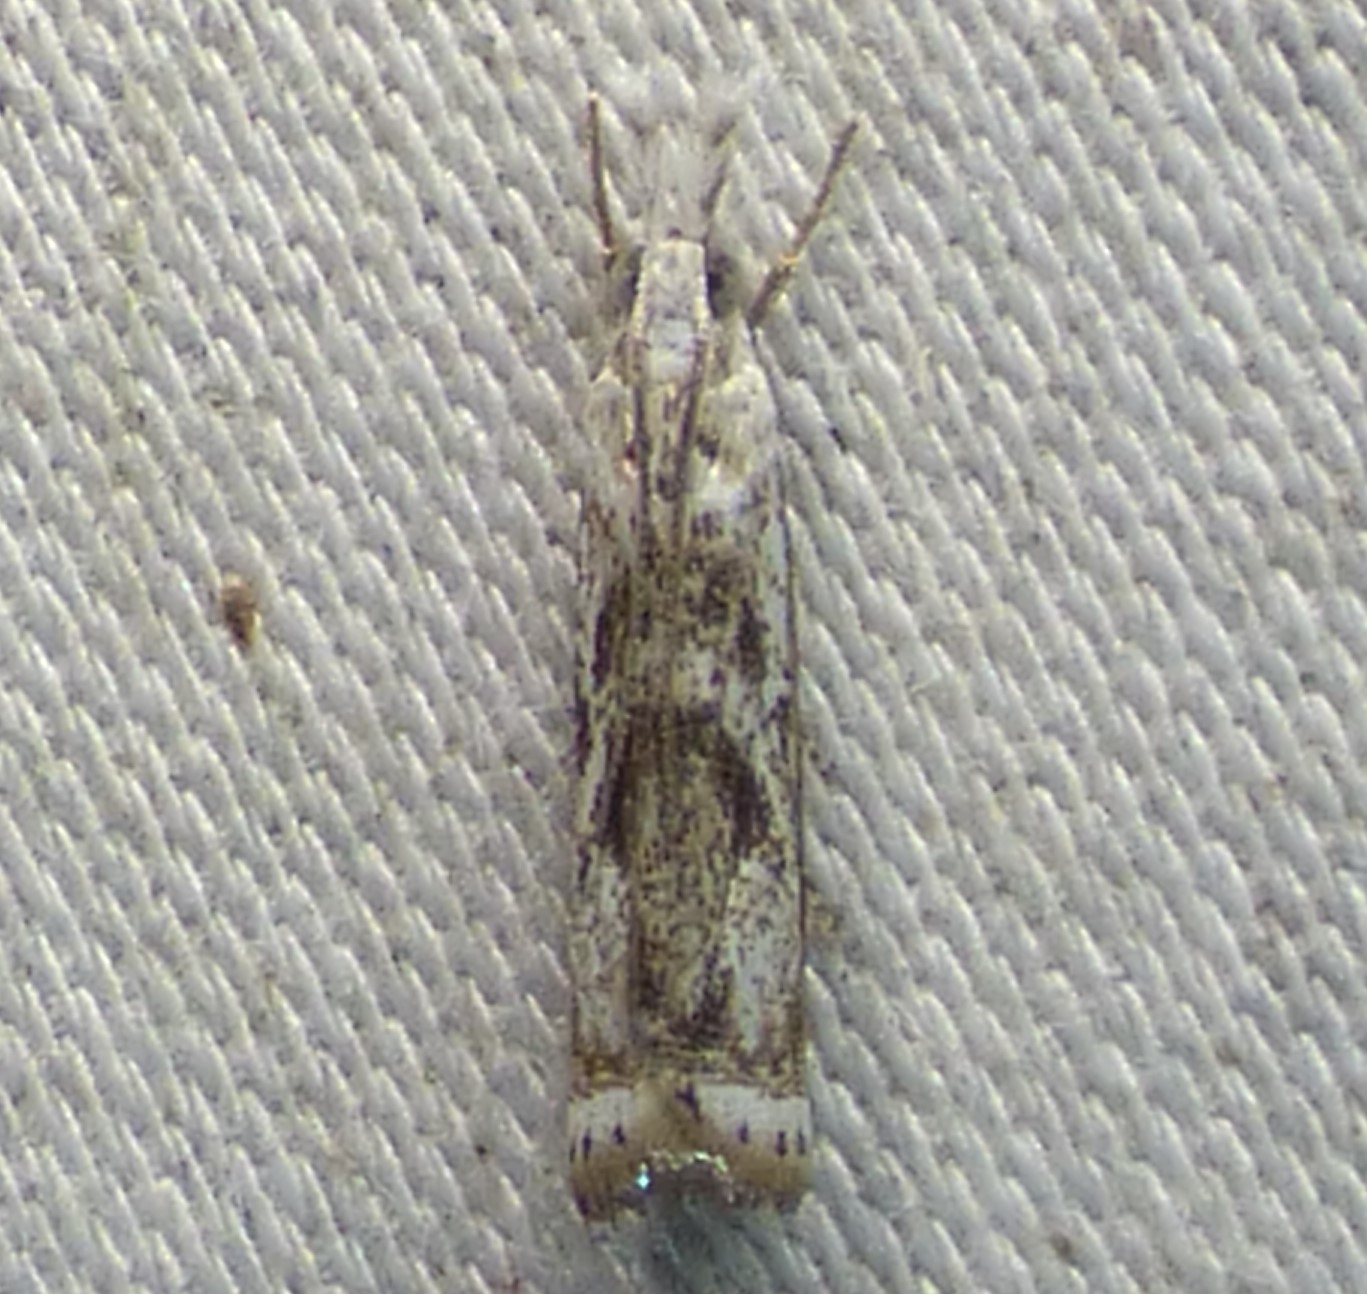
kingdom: Animalia
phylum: Arthropoda
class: Insecta
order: Lepidoptera
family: Crambidae
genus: Microcrambus
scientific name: Microcrambus immunellus
